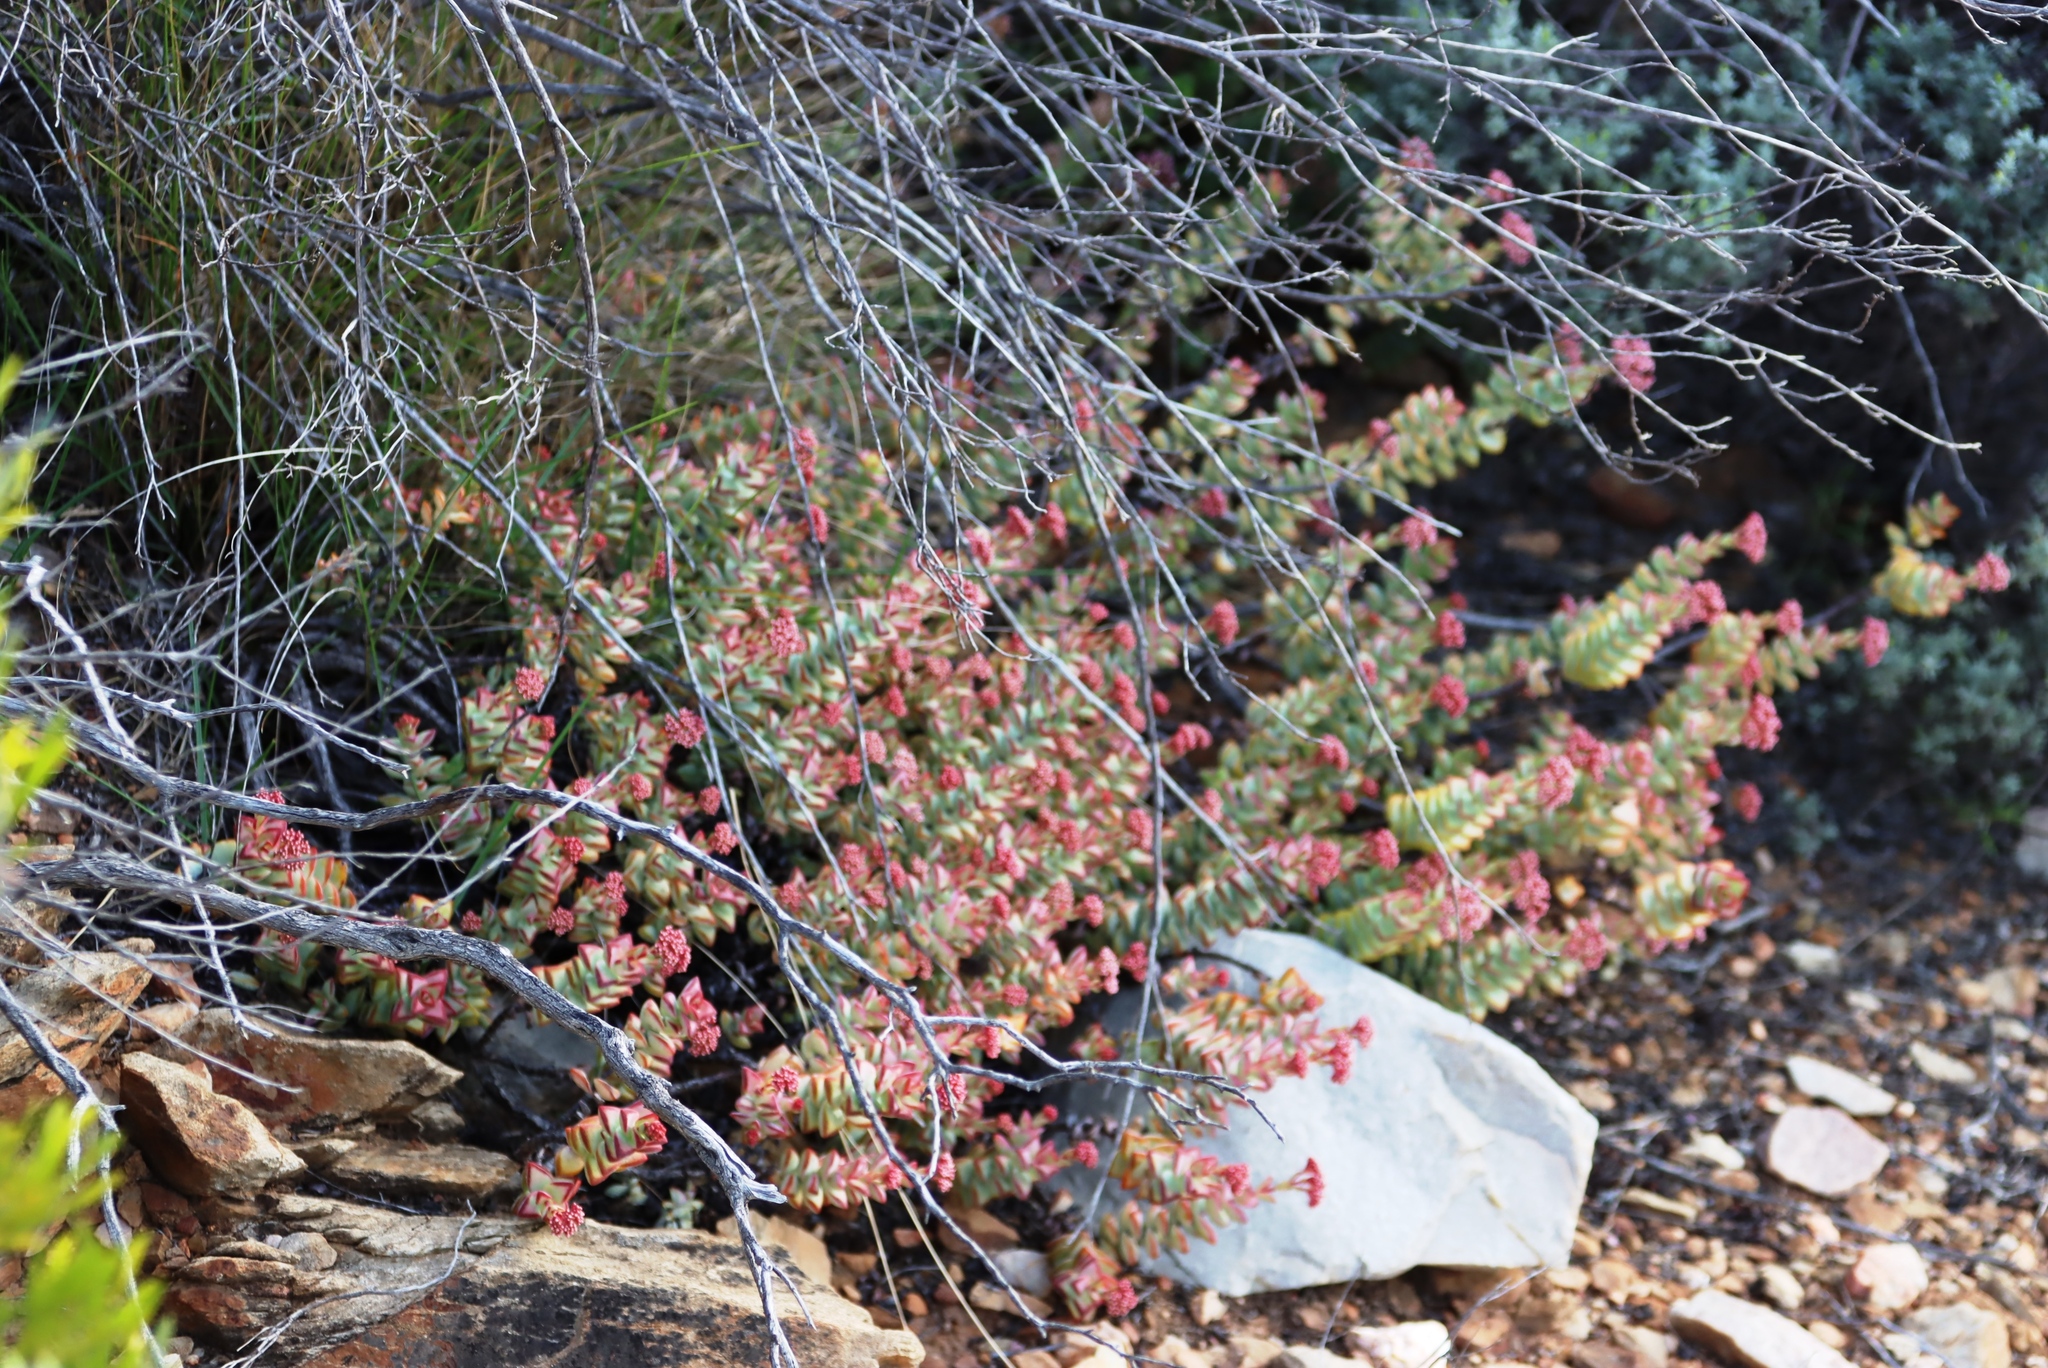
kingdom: Plantae
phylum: Tracheophyta
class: Magnoliopsida
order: Saxifragales
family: Crassulaceae
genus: Crassula
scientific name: Crassula rupestris
